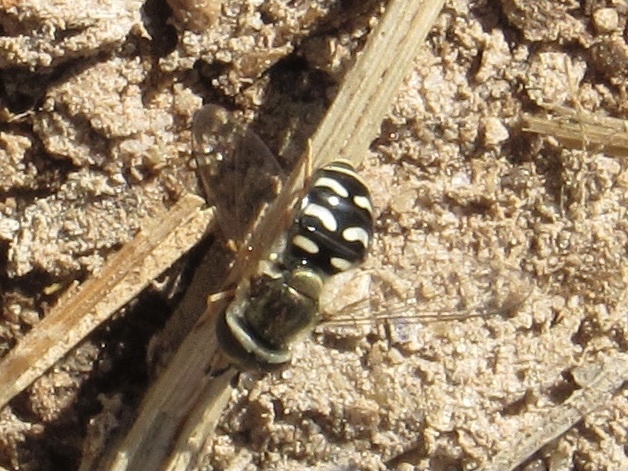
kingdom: Animalia
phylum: Arthropoda
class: Insecta
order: Diptera
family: Syrphidae
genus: Eupeodes
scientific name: Eupeodes volucris
